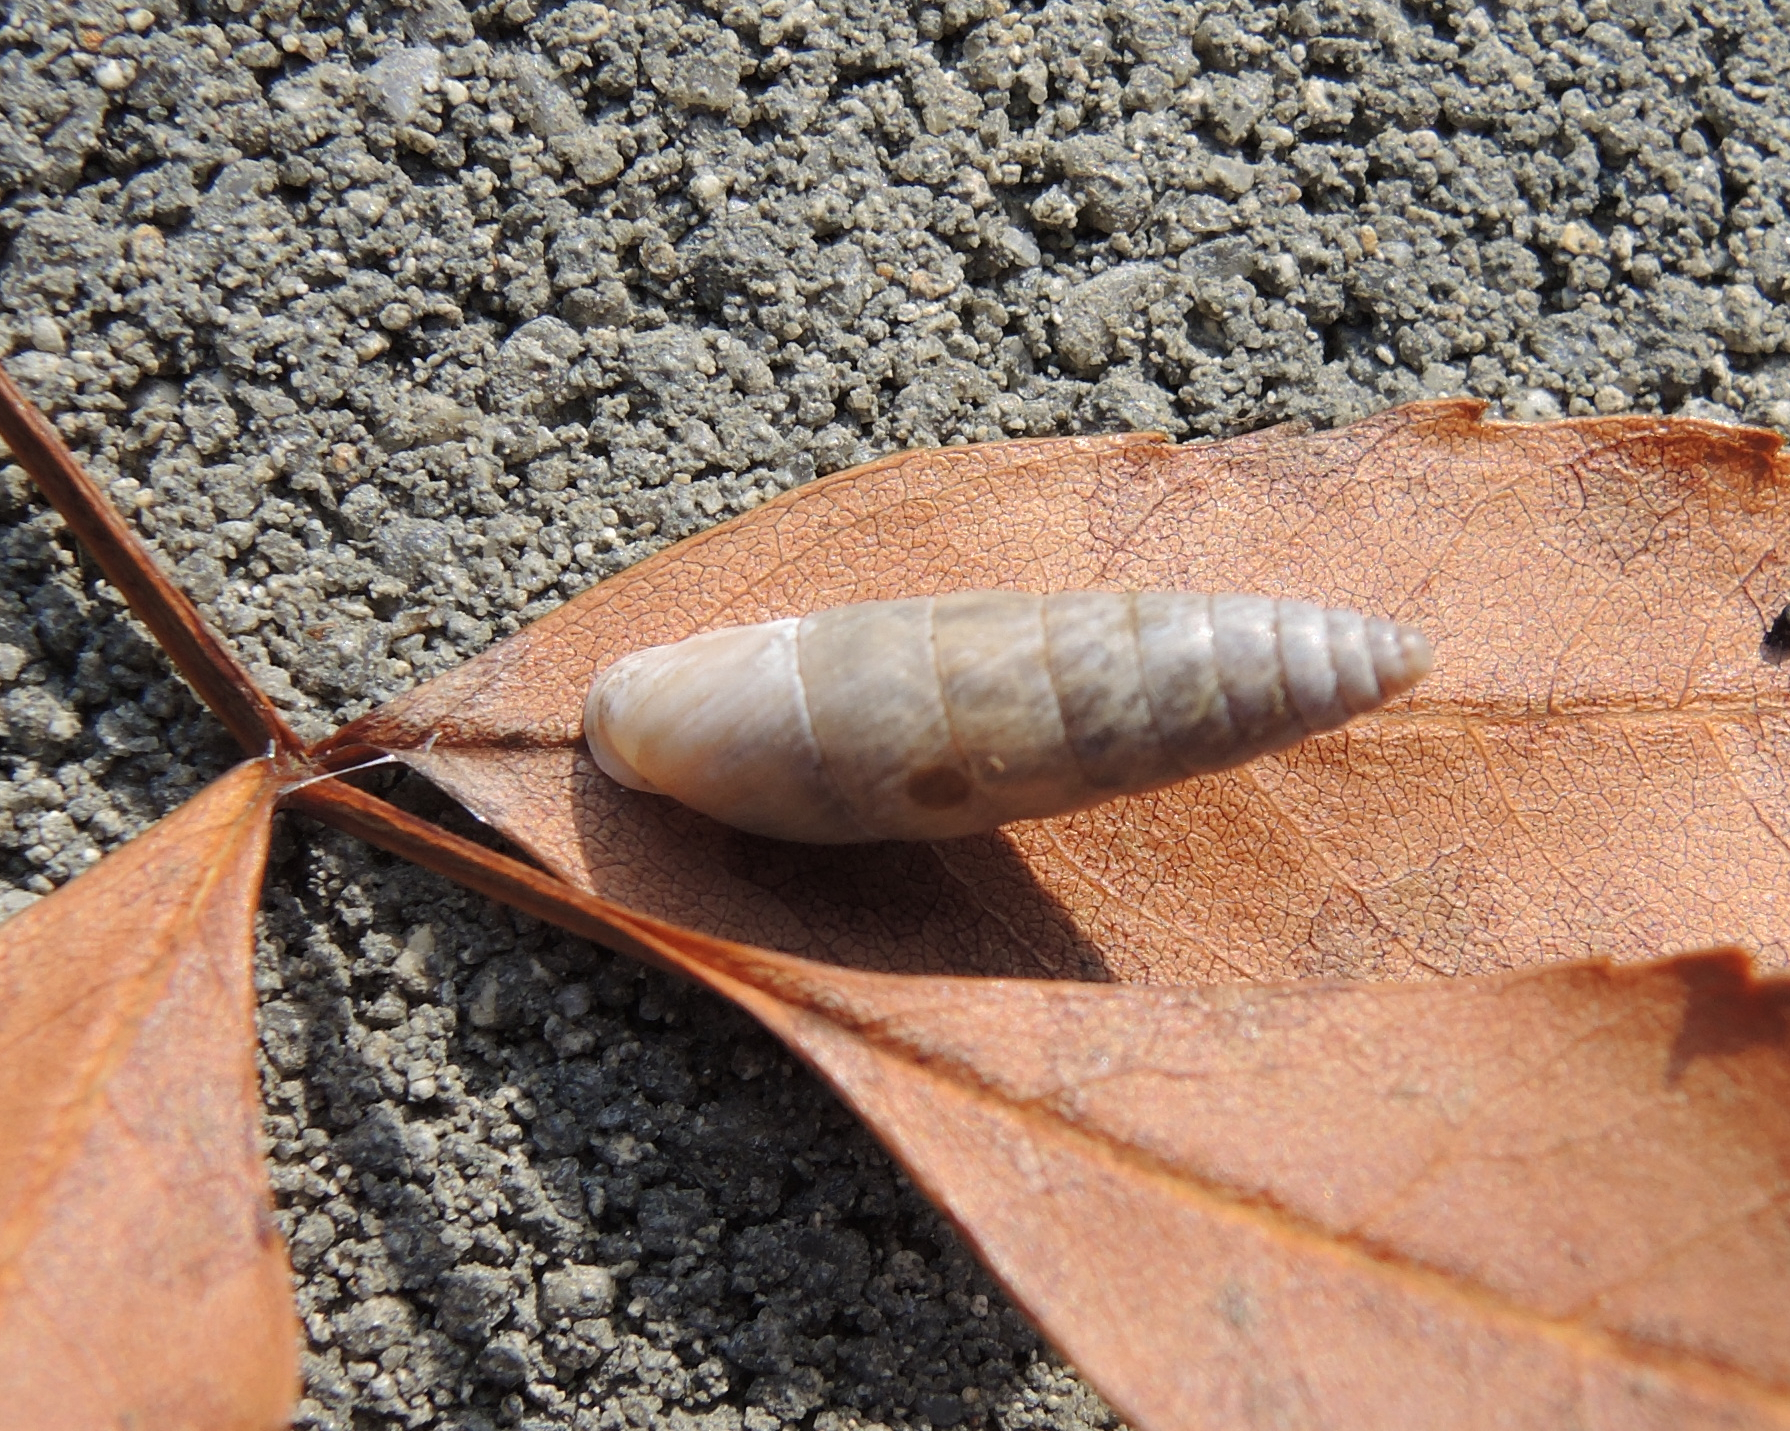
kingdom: Animalia
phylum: Mollusca
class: Gastropoda
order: Stylommatophora
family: Enidae
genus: Eubrephulus
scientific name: Eubrephulus bicallosus
